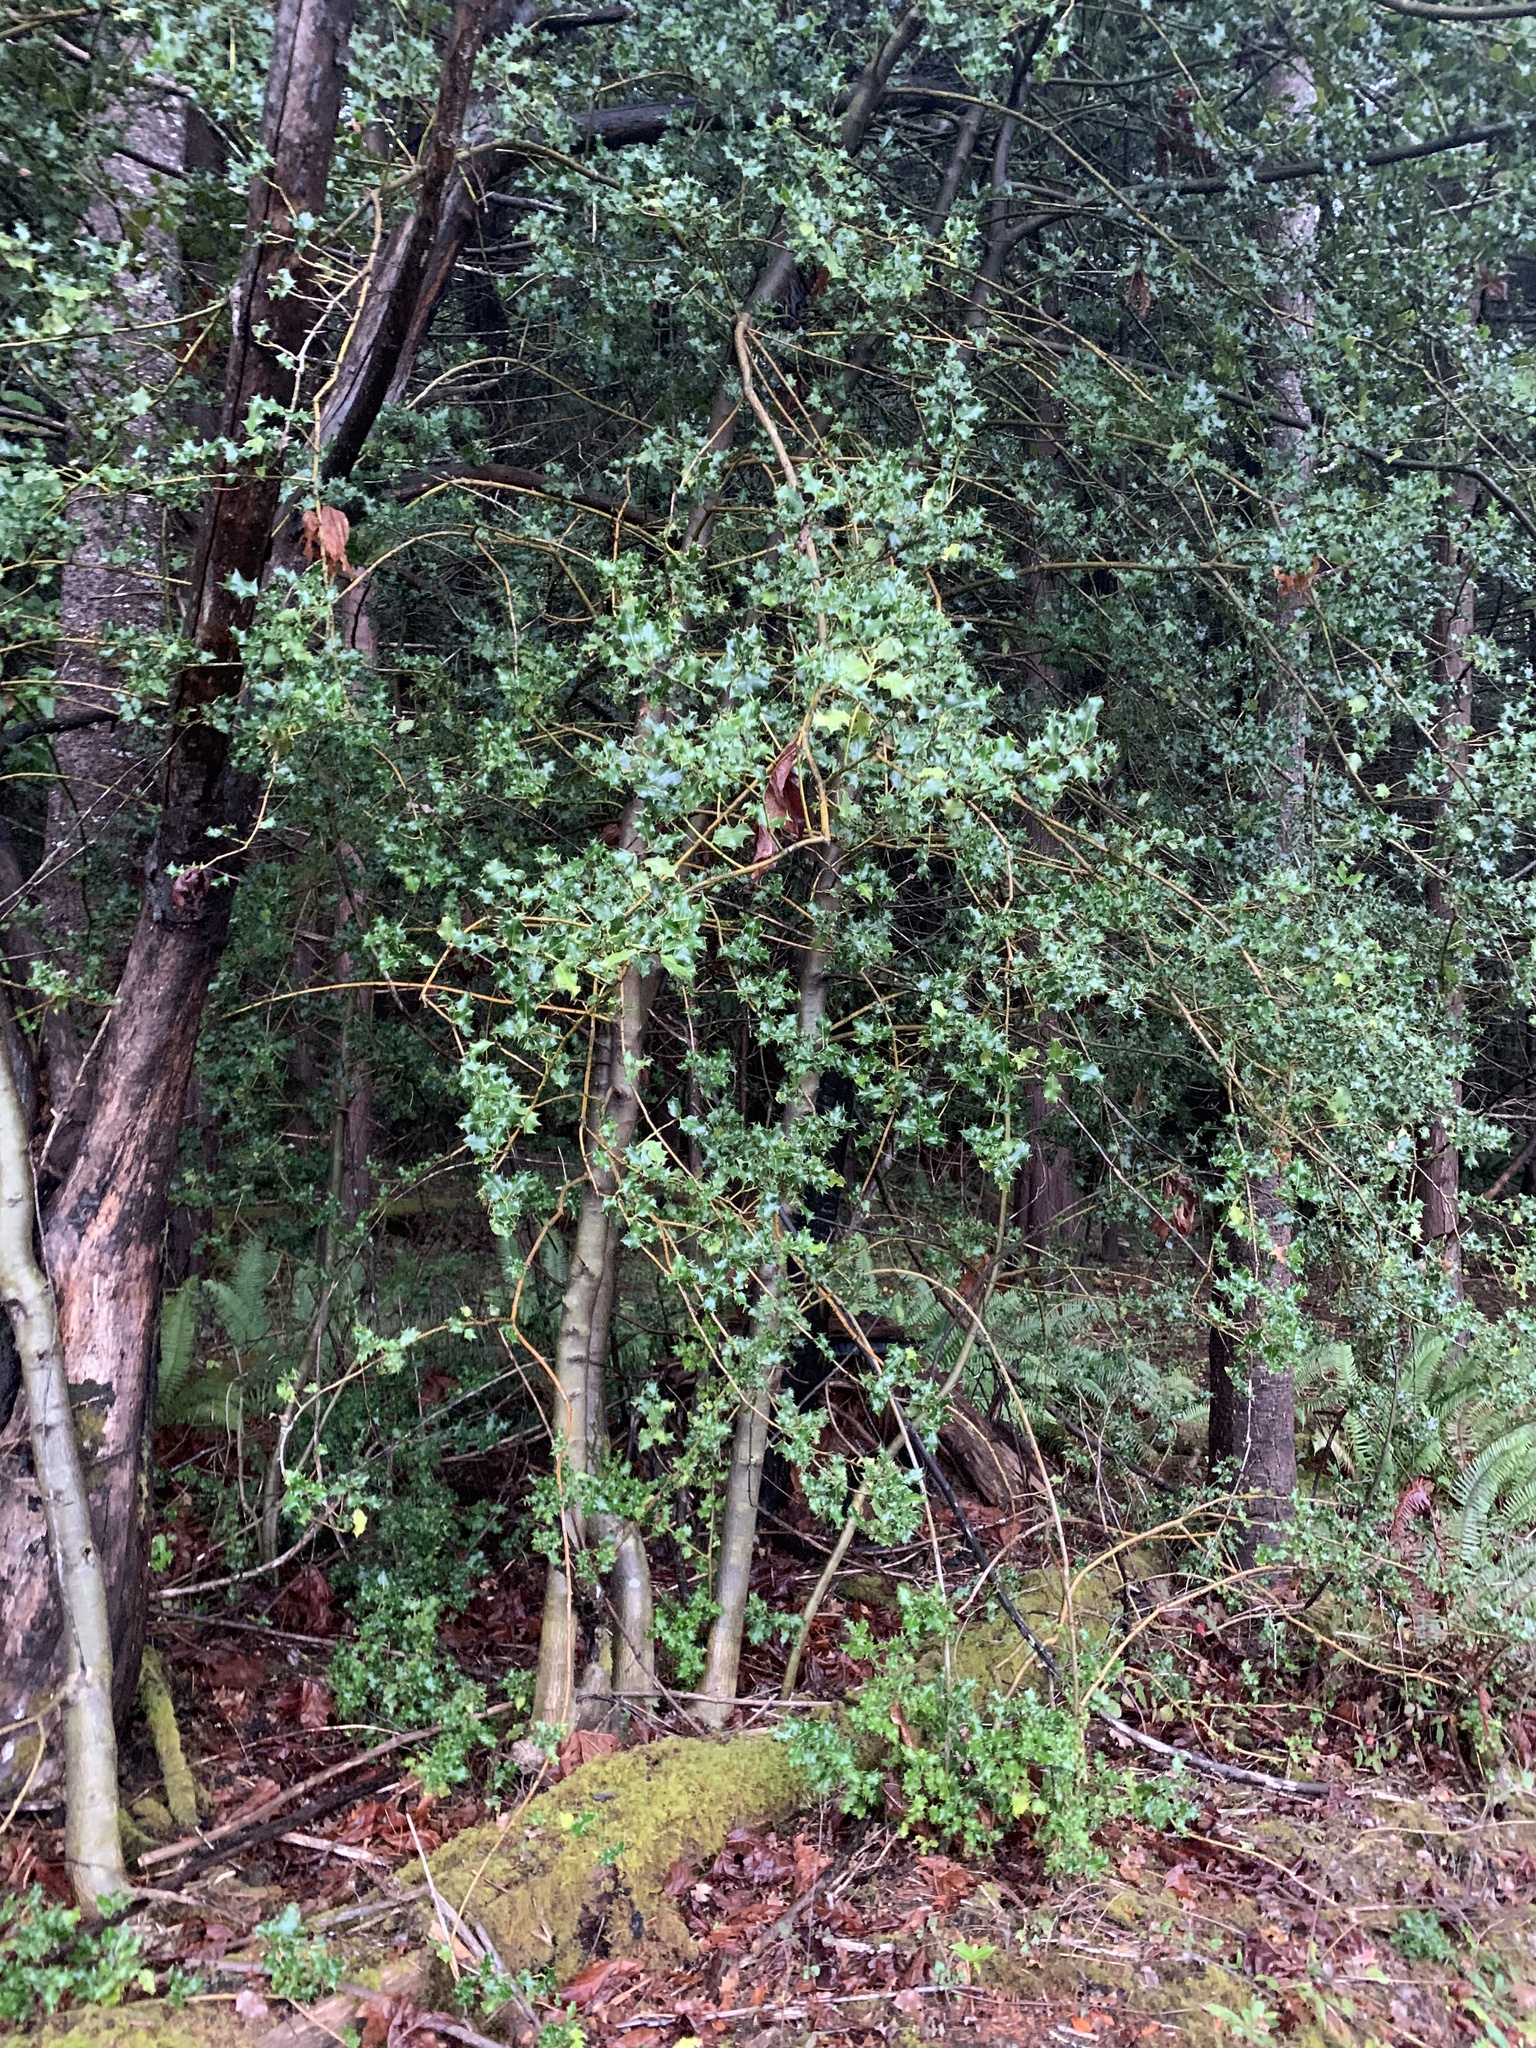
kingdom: Plantae
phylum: Tracheophyta
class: Magnoliopsida
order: Aquifoliales
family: Aquifoliaceae
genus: Ilex
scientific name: Ilex aquifolium
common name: English holly
